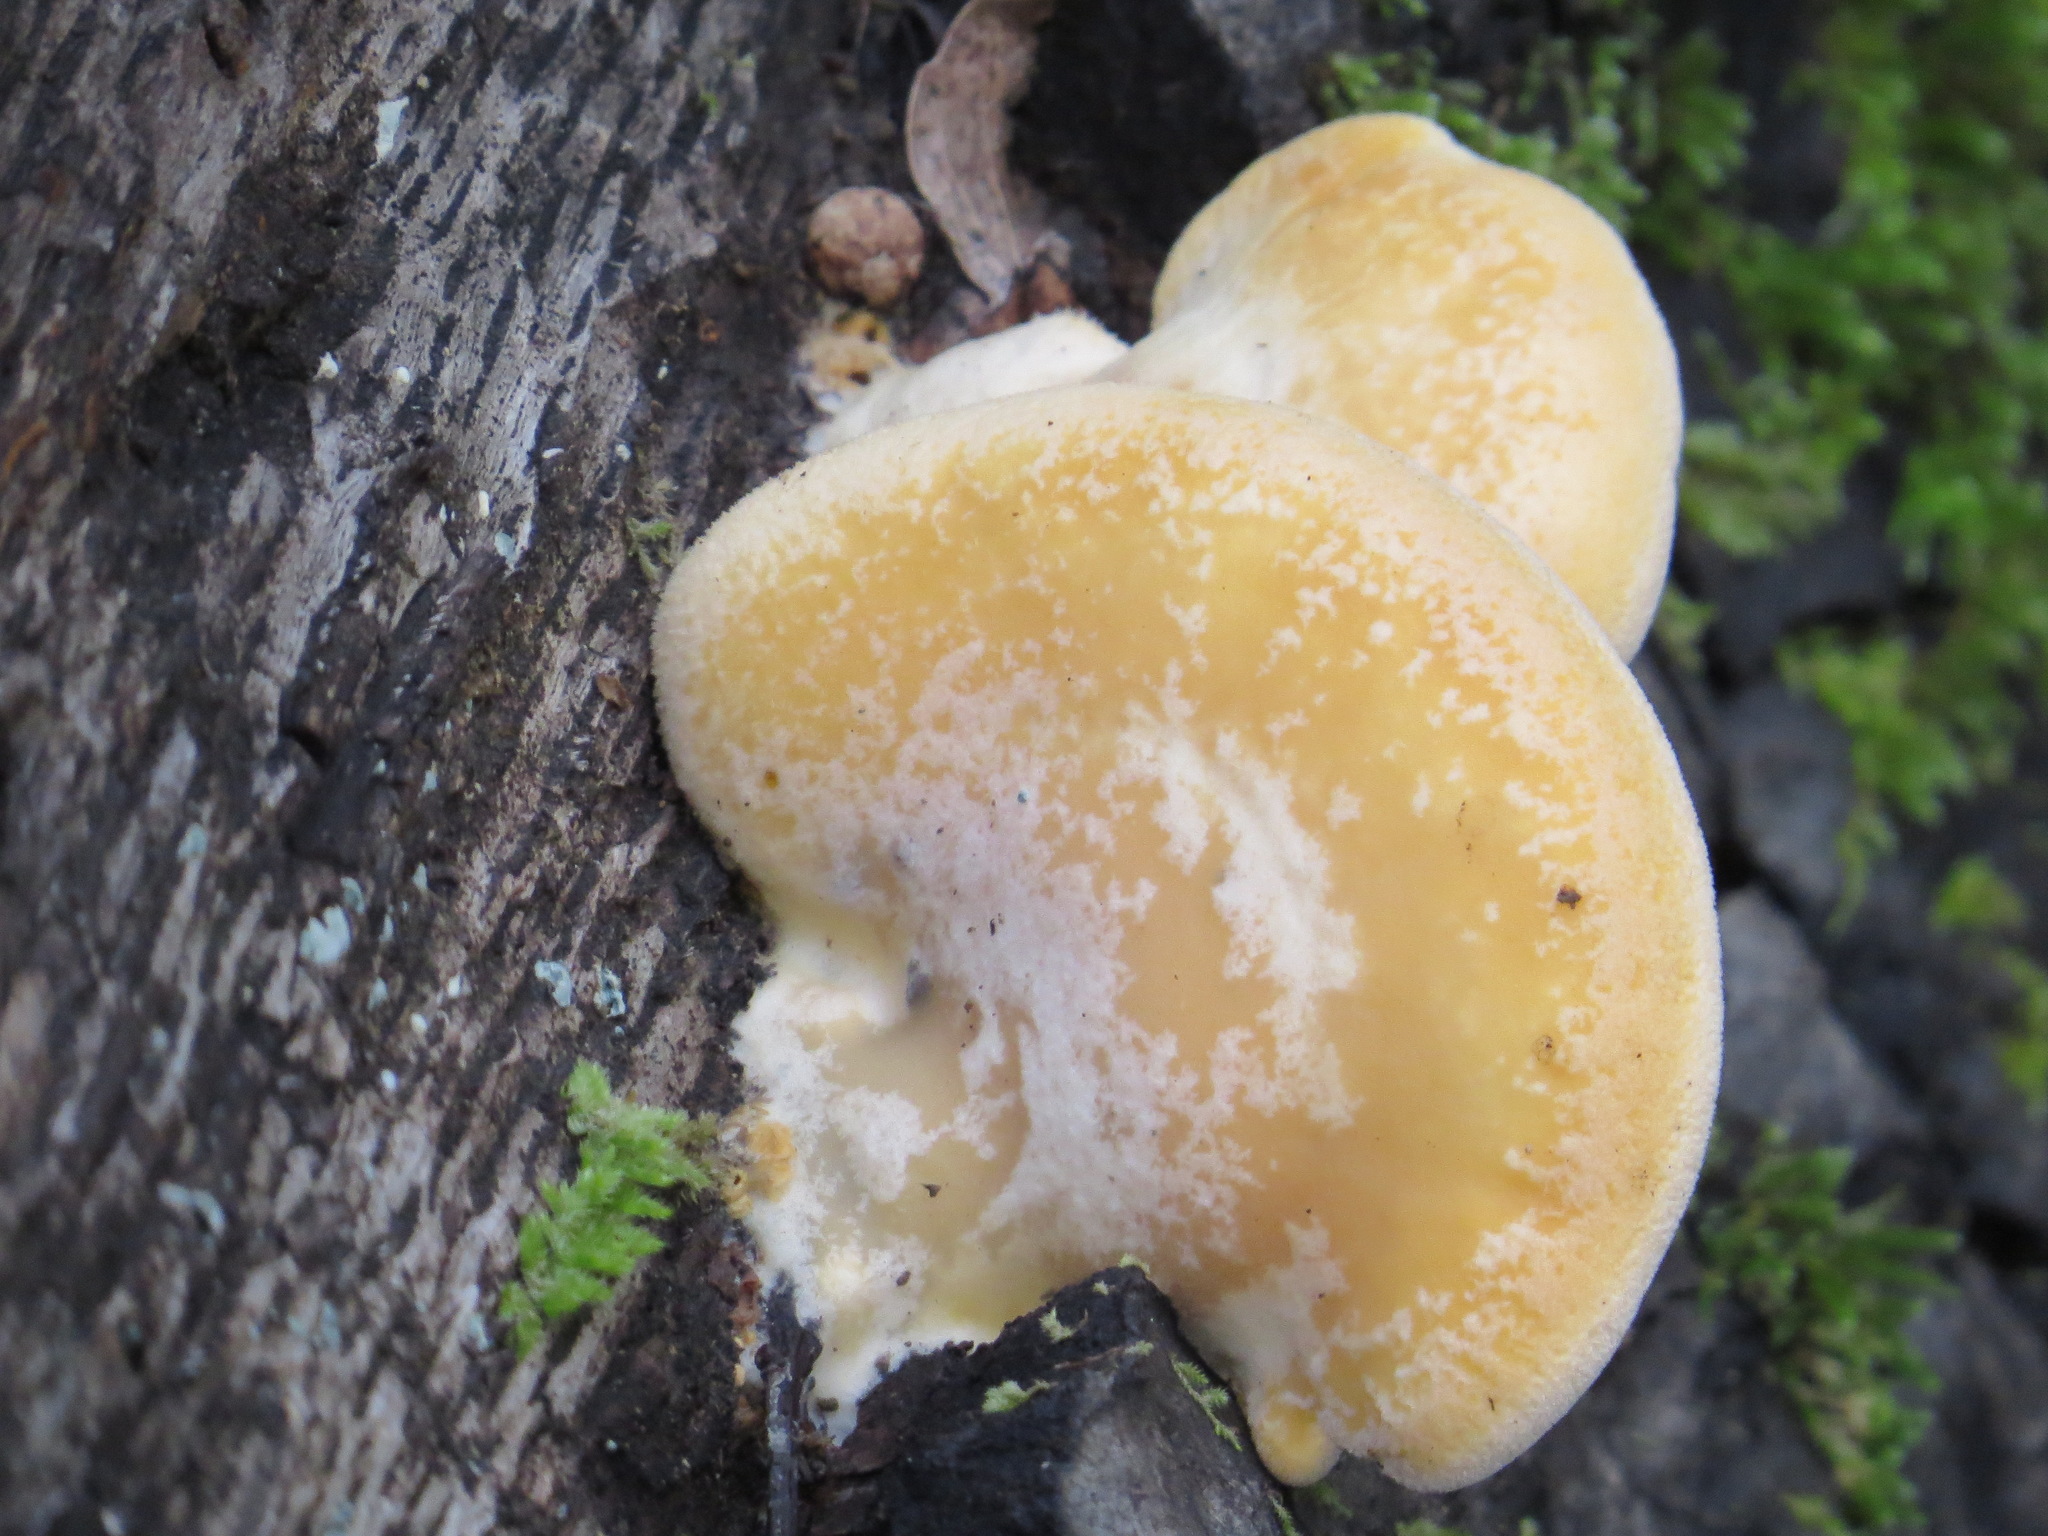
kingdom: Fungi
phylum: Basidiomycota
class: Agaricomycetes
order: Agaricales
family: Phyllotopsidaceae
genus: Phyllotopsis
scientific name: Phyllotopsis nidulans
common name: Orange mock oyster
